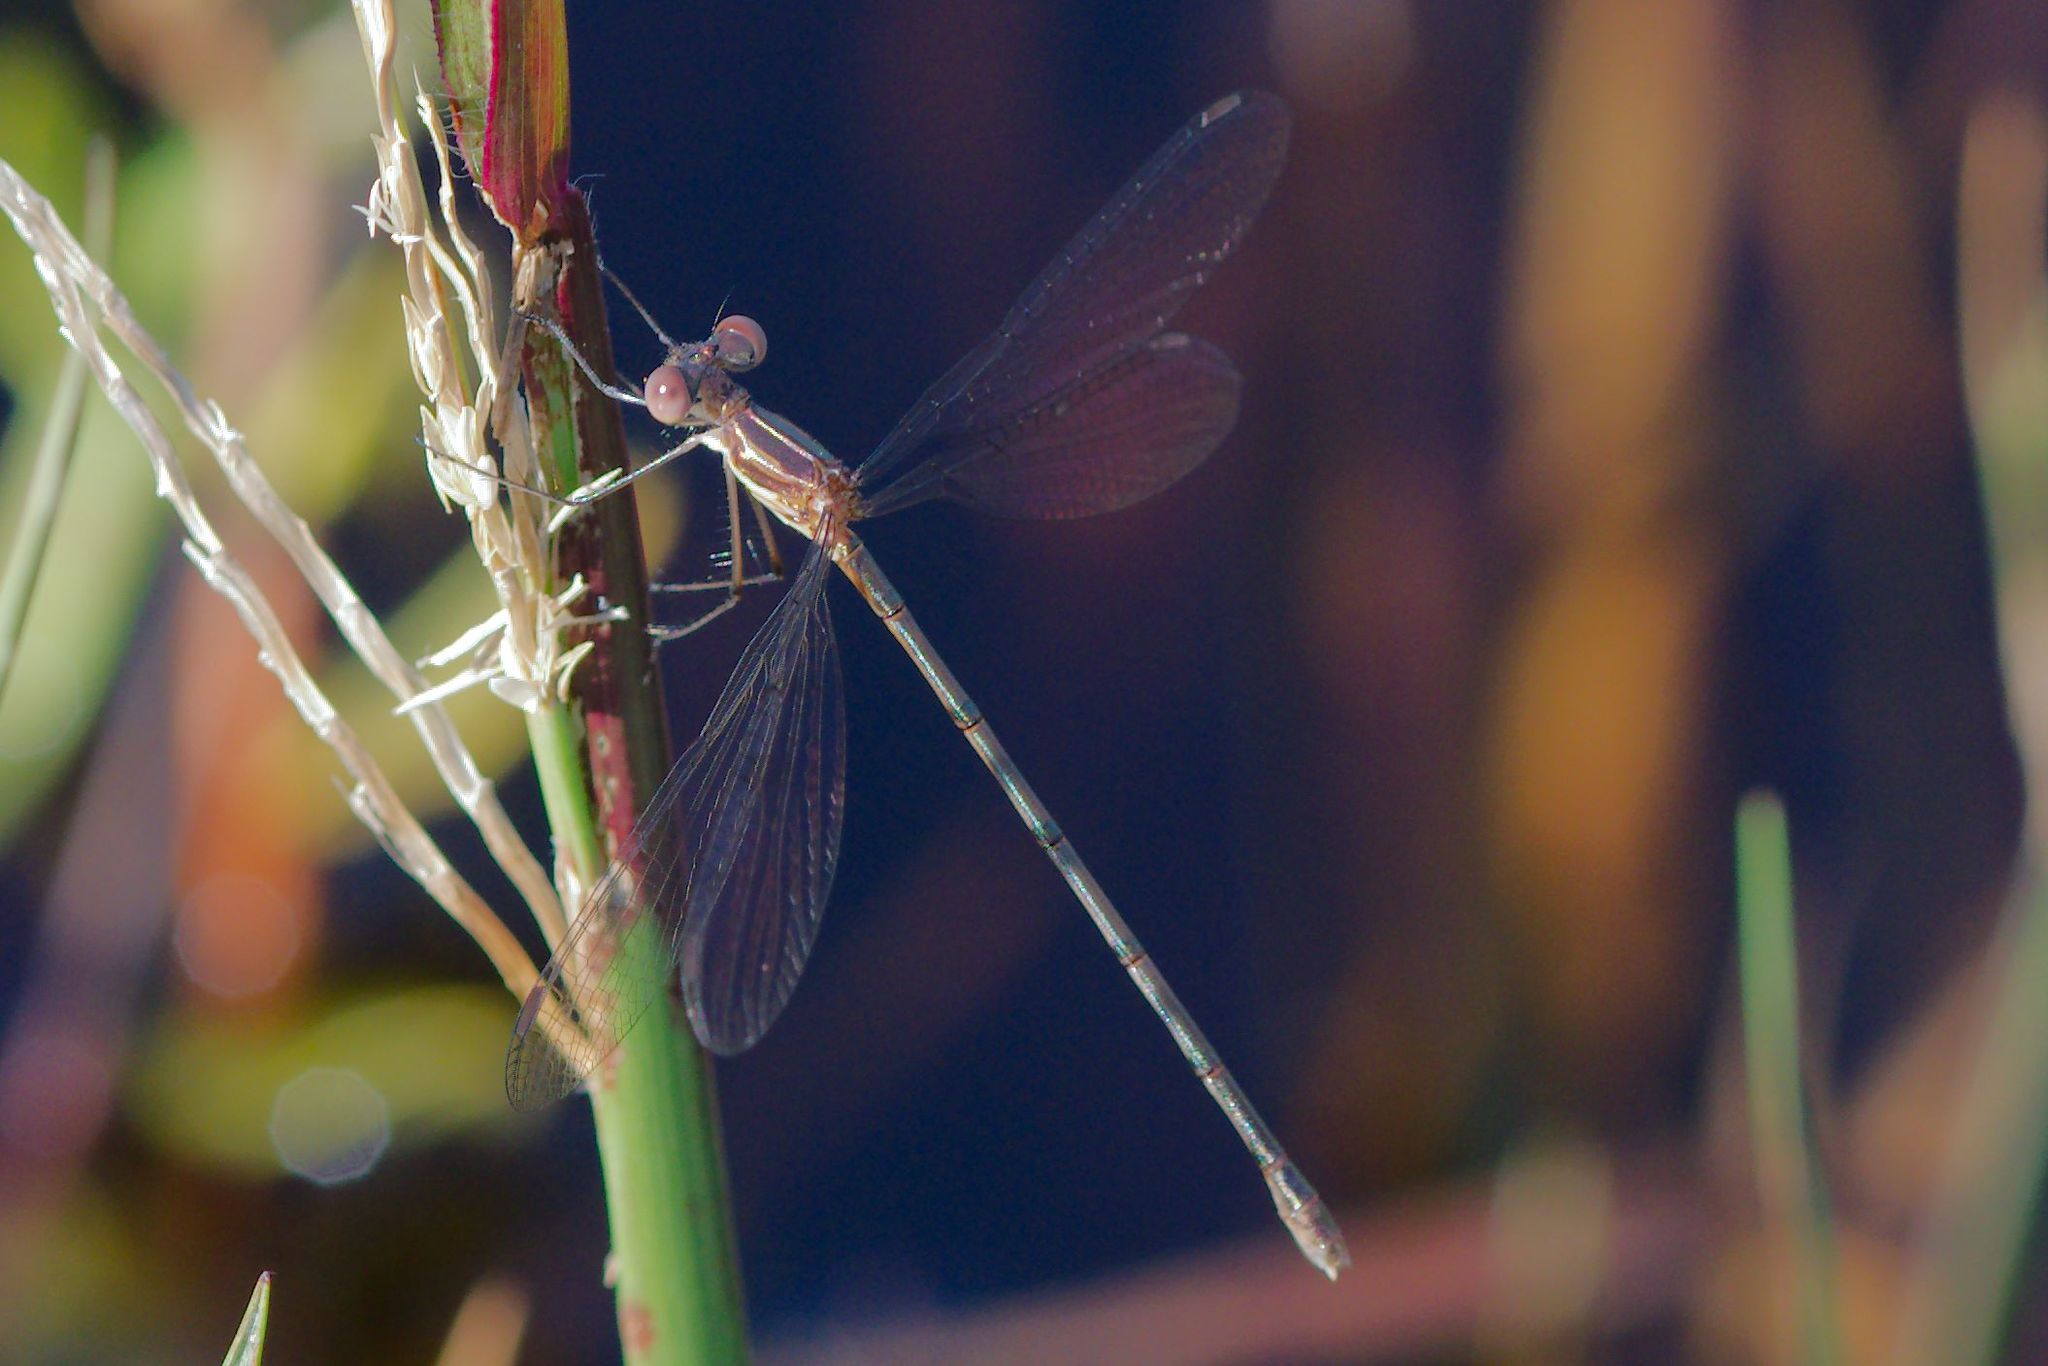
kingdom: Animalia
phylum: Arthropoda
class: Insecta
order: Odonata
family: Lestidae
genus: Lestes
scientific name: Lestes vidua
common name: Carolina spreadwing
